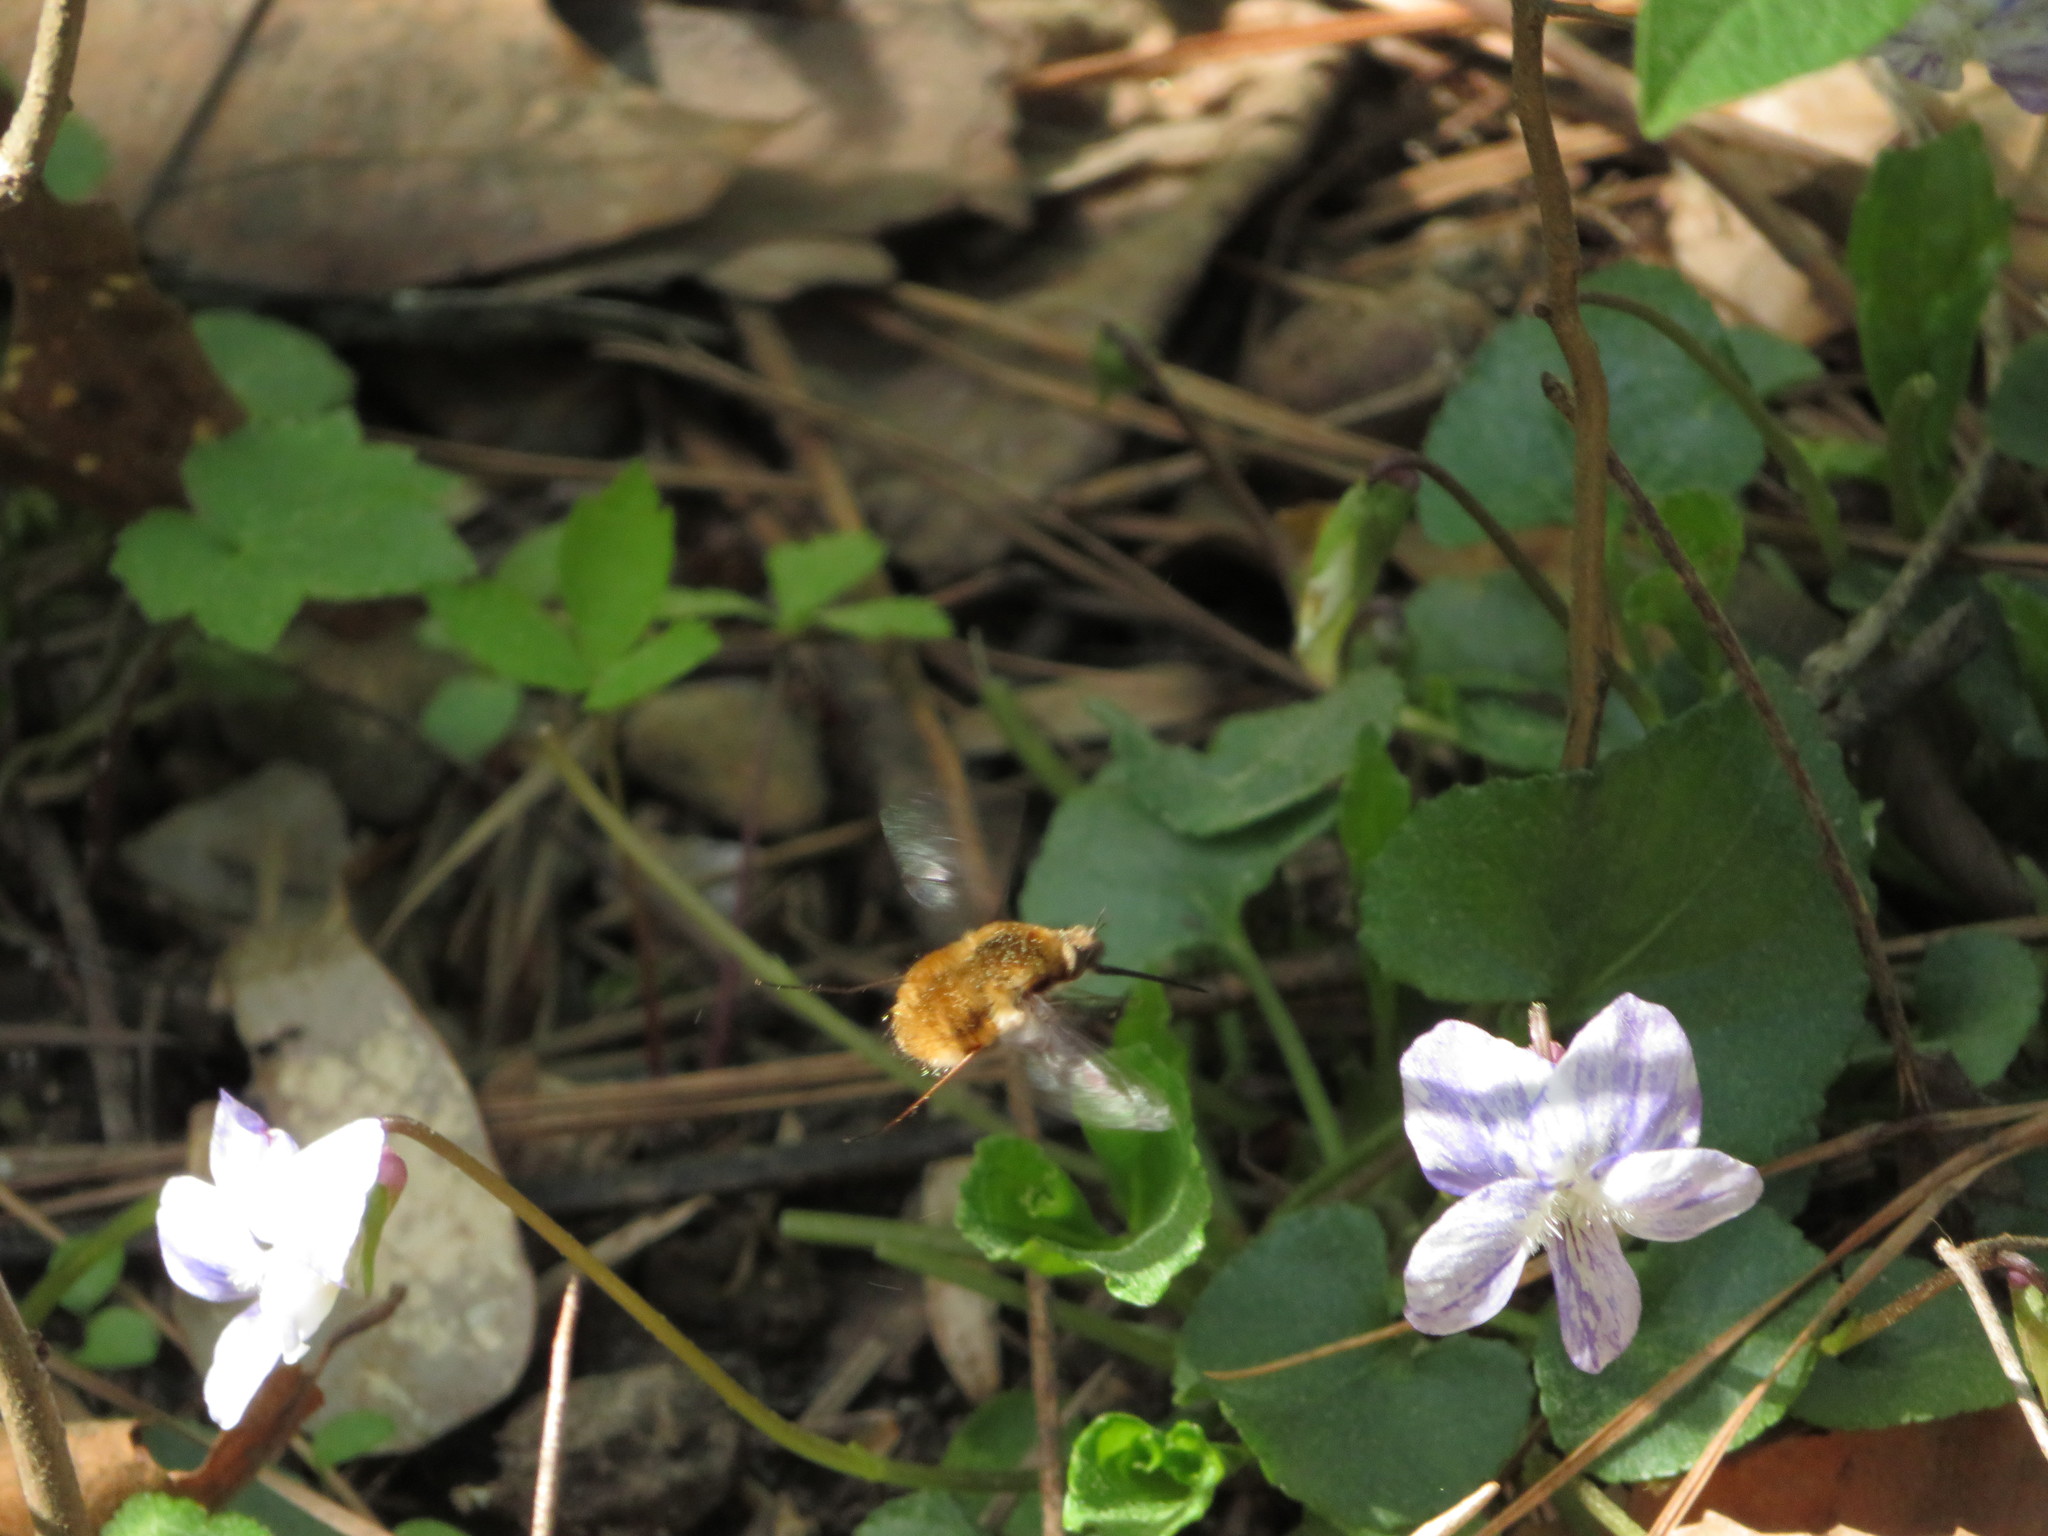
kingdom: Animalia
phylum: Arthropoda
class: Insecta
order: Diptera
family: Bombyliidae
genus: Bombylius
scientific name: Bombylius major
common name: Bee fly
